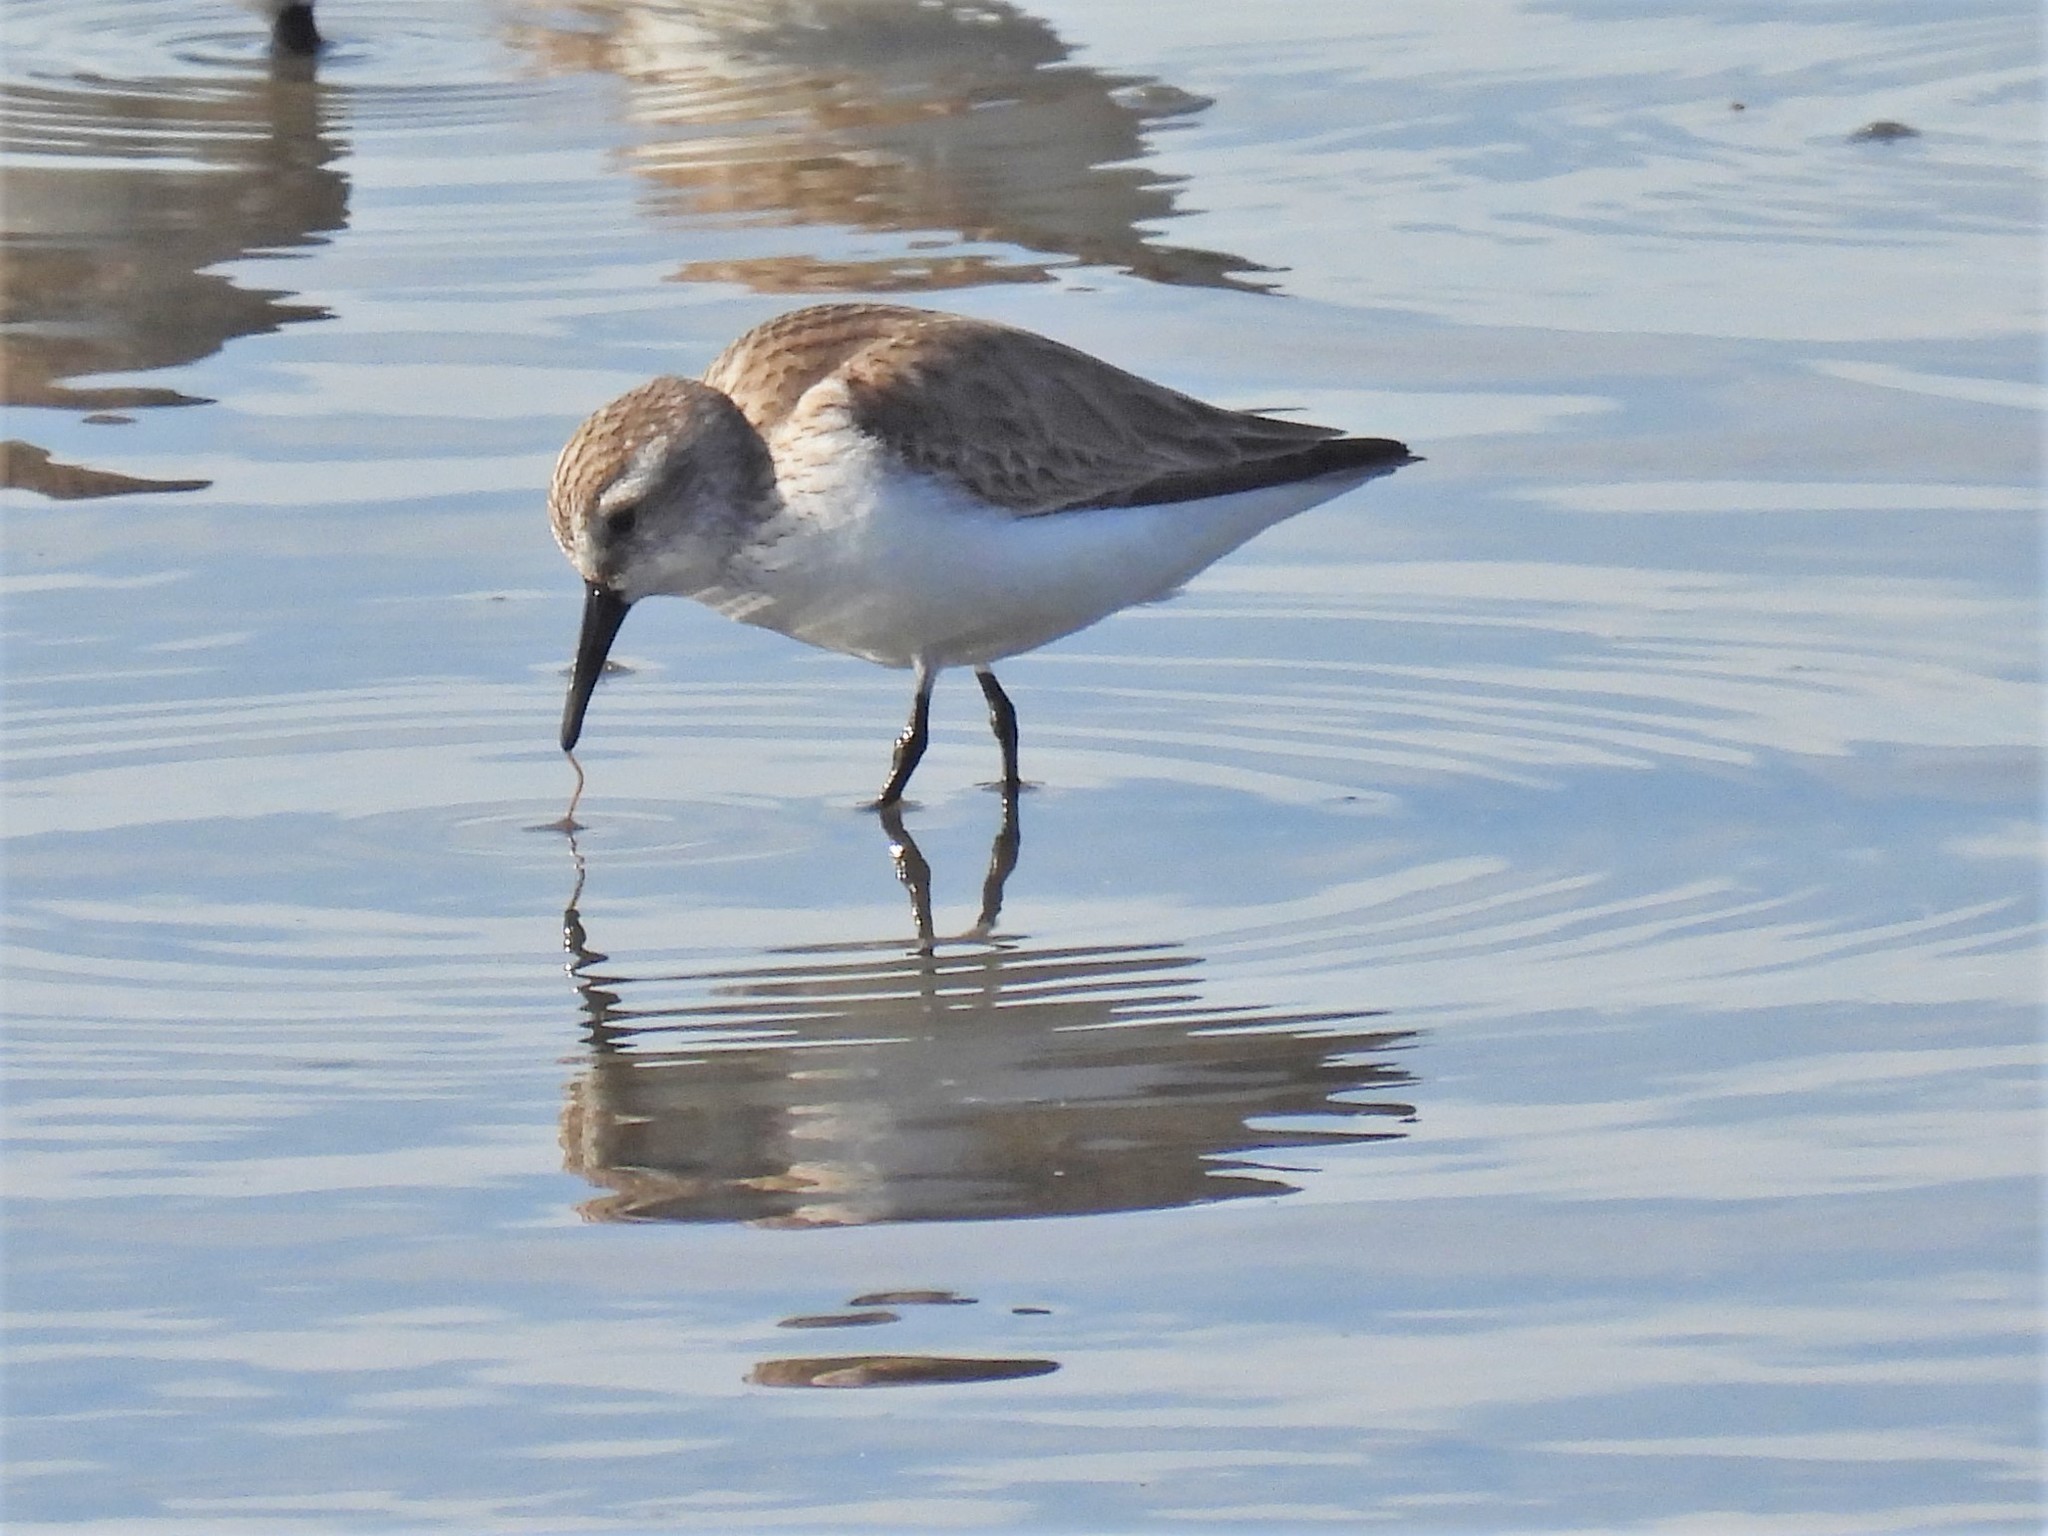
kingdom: Animalia
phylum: Chordata
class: Aves
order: Charadriiformes
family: Scolopacidae
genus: Calidris
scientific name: Calidris mauri
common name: Western sandpiper
